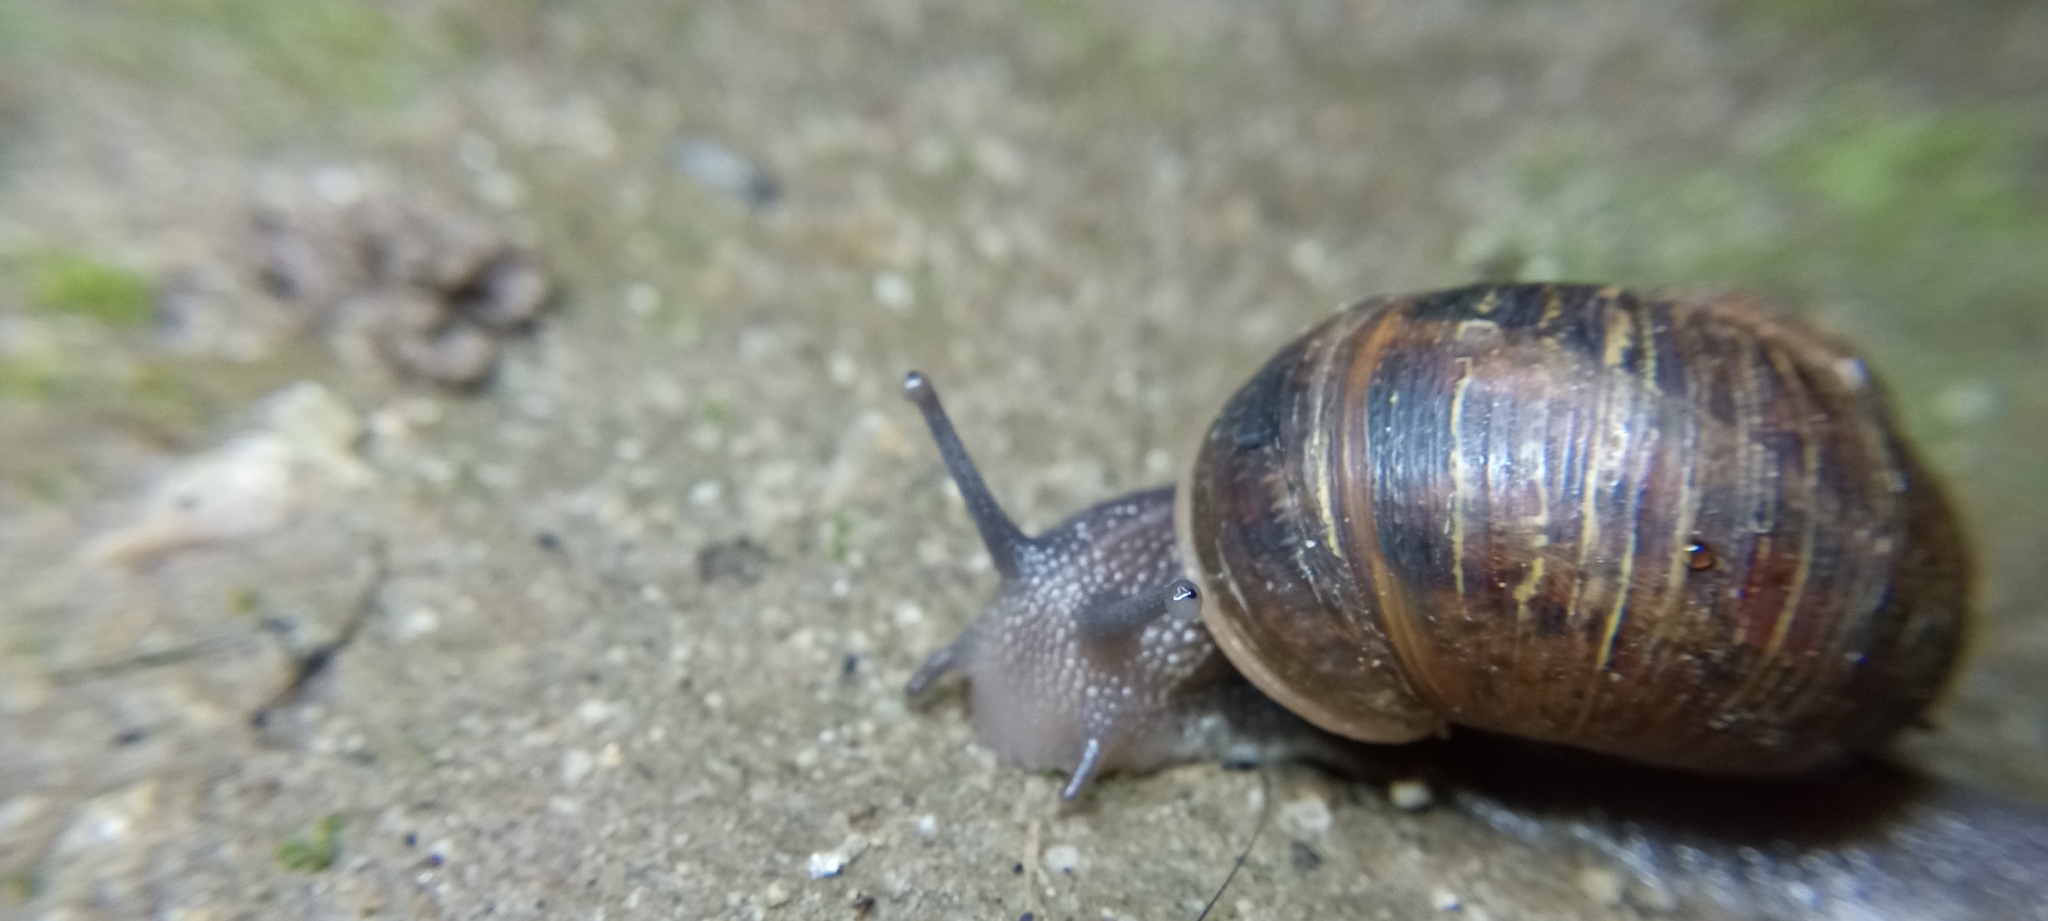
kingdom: Animalia
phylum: Mollusca
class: Gastropoda
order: Stylommatophora
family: Helicidae
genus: Cornu
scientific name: Cornu aspersum
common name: Brown garden snail
